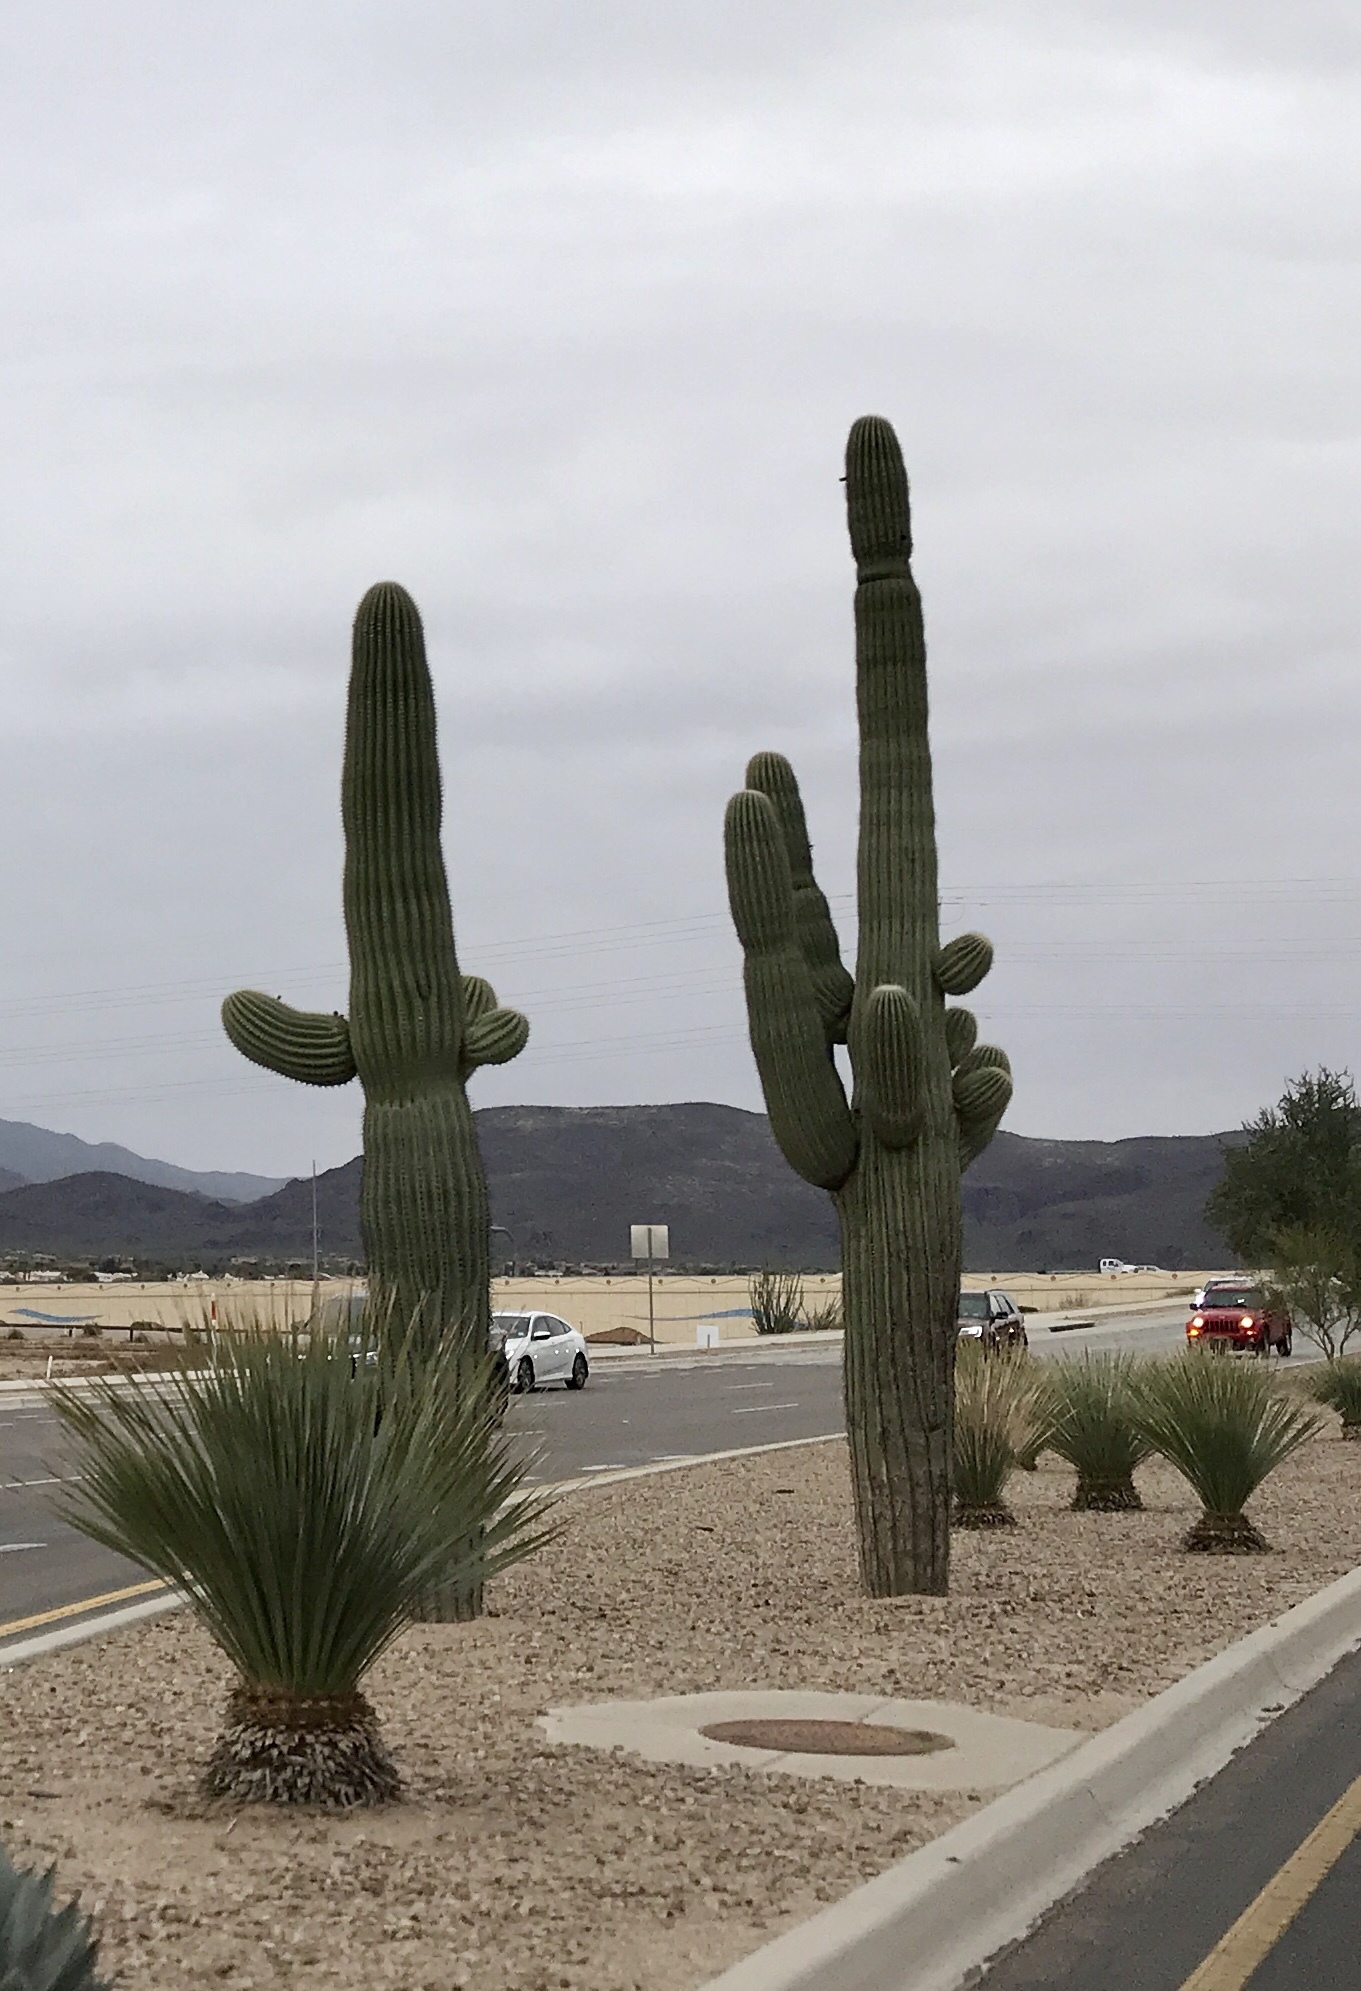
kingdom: Plantae
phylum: Tracheophyta
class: Magnoliopsida
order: Caryophyllales
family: Cactaceae
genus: Carnegiea
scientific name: Carnegiea gigantea
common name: Saguaro
